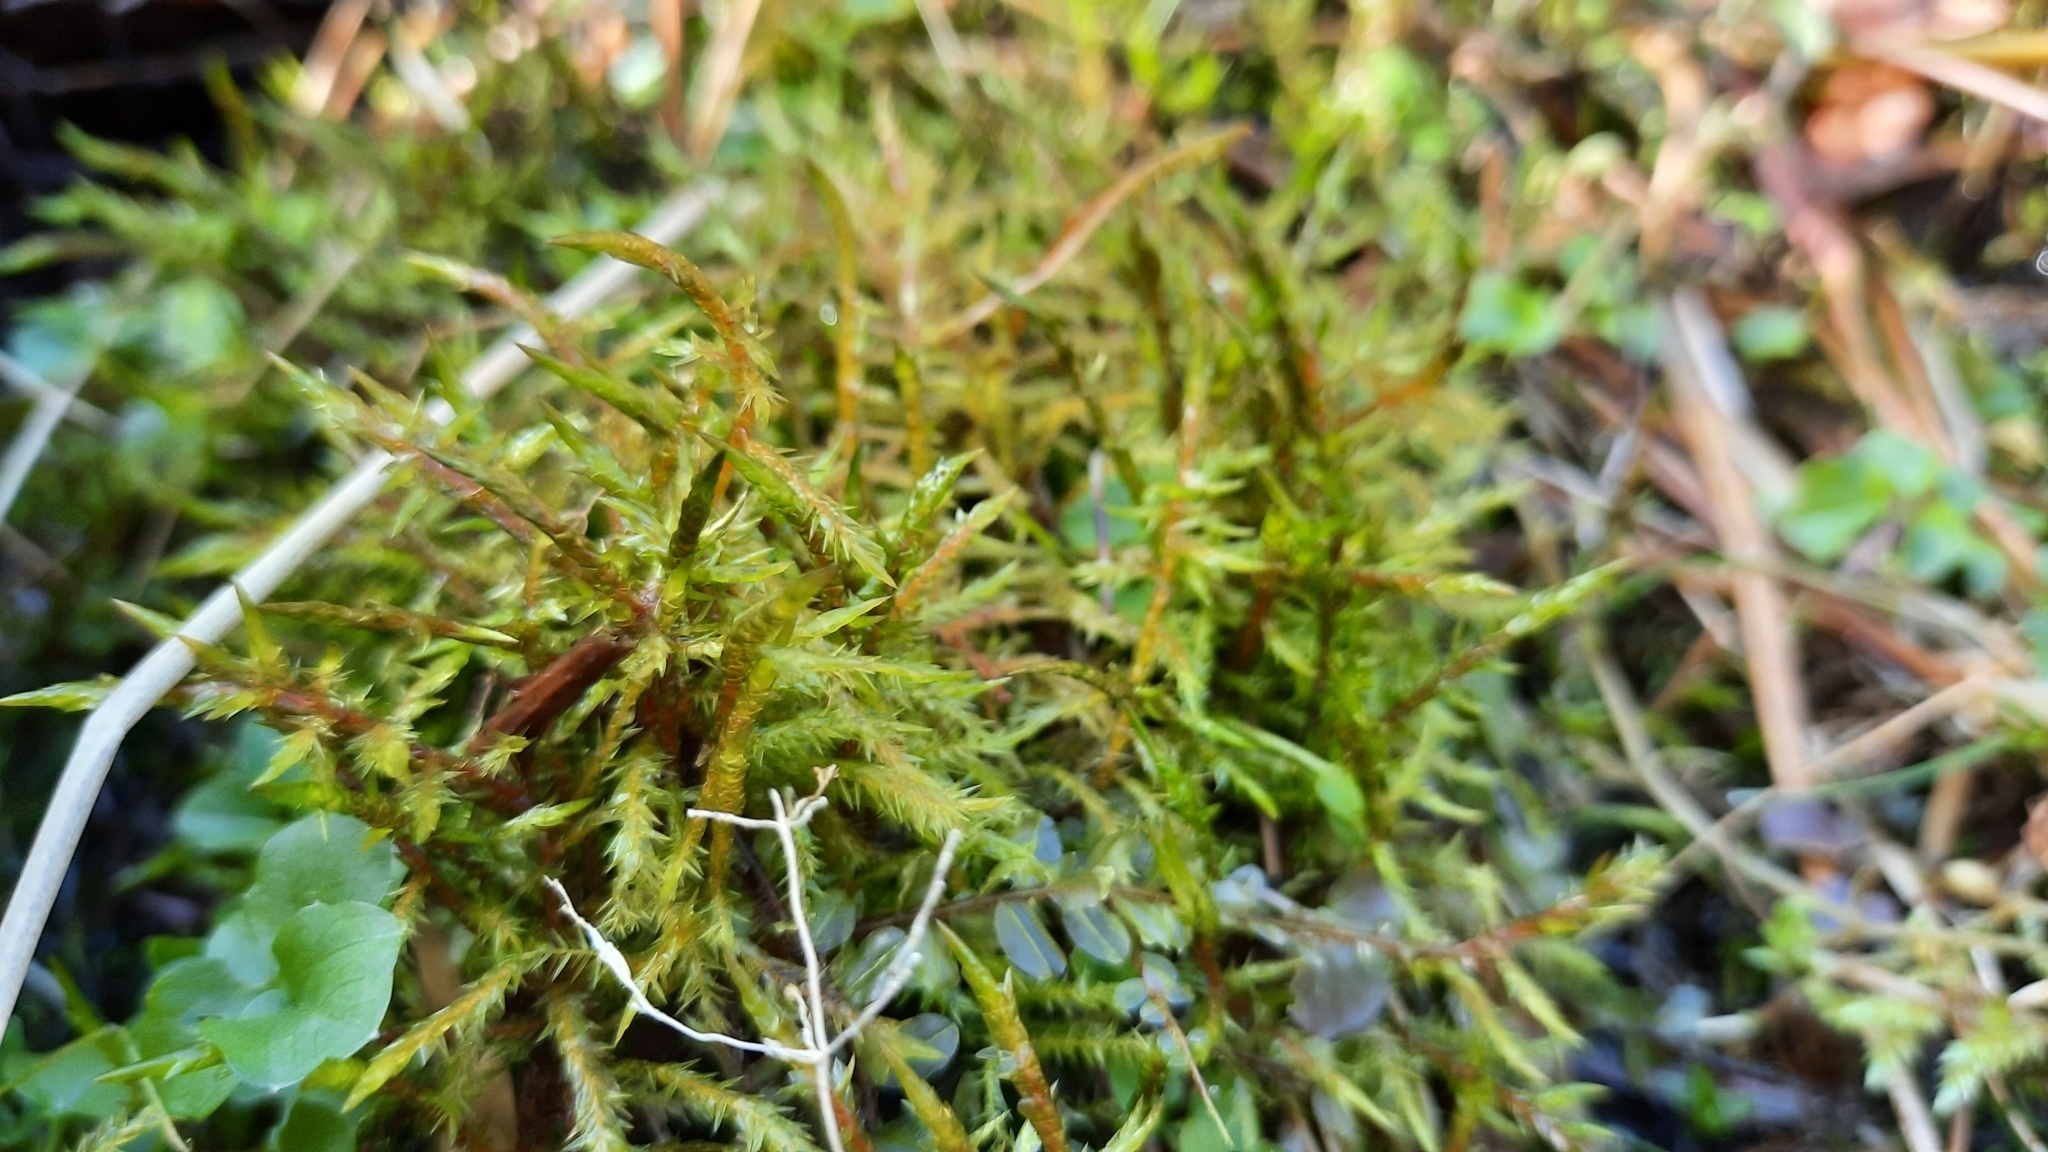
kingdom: Plantae
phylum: Bryophyta
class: Bryopsida
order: Hypnales
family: Pylaisiaceae
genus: Calliergonella
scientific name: Calliergonella cuspidata
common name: Common large wetland moss
